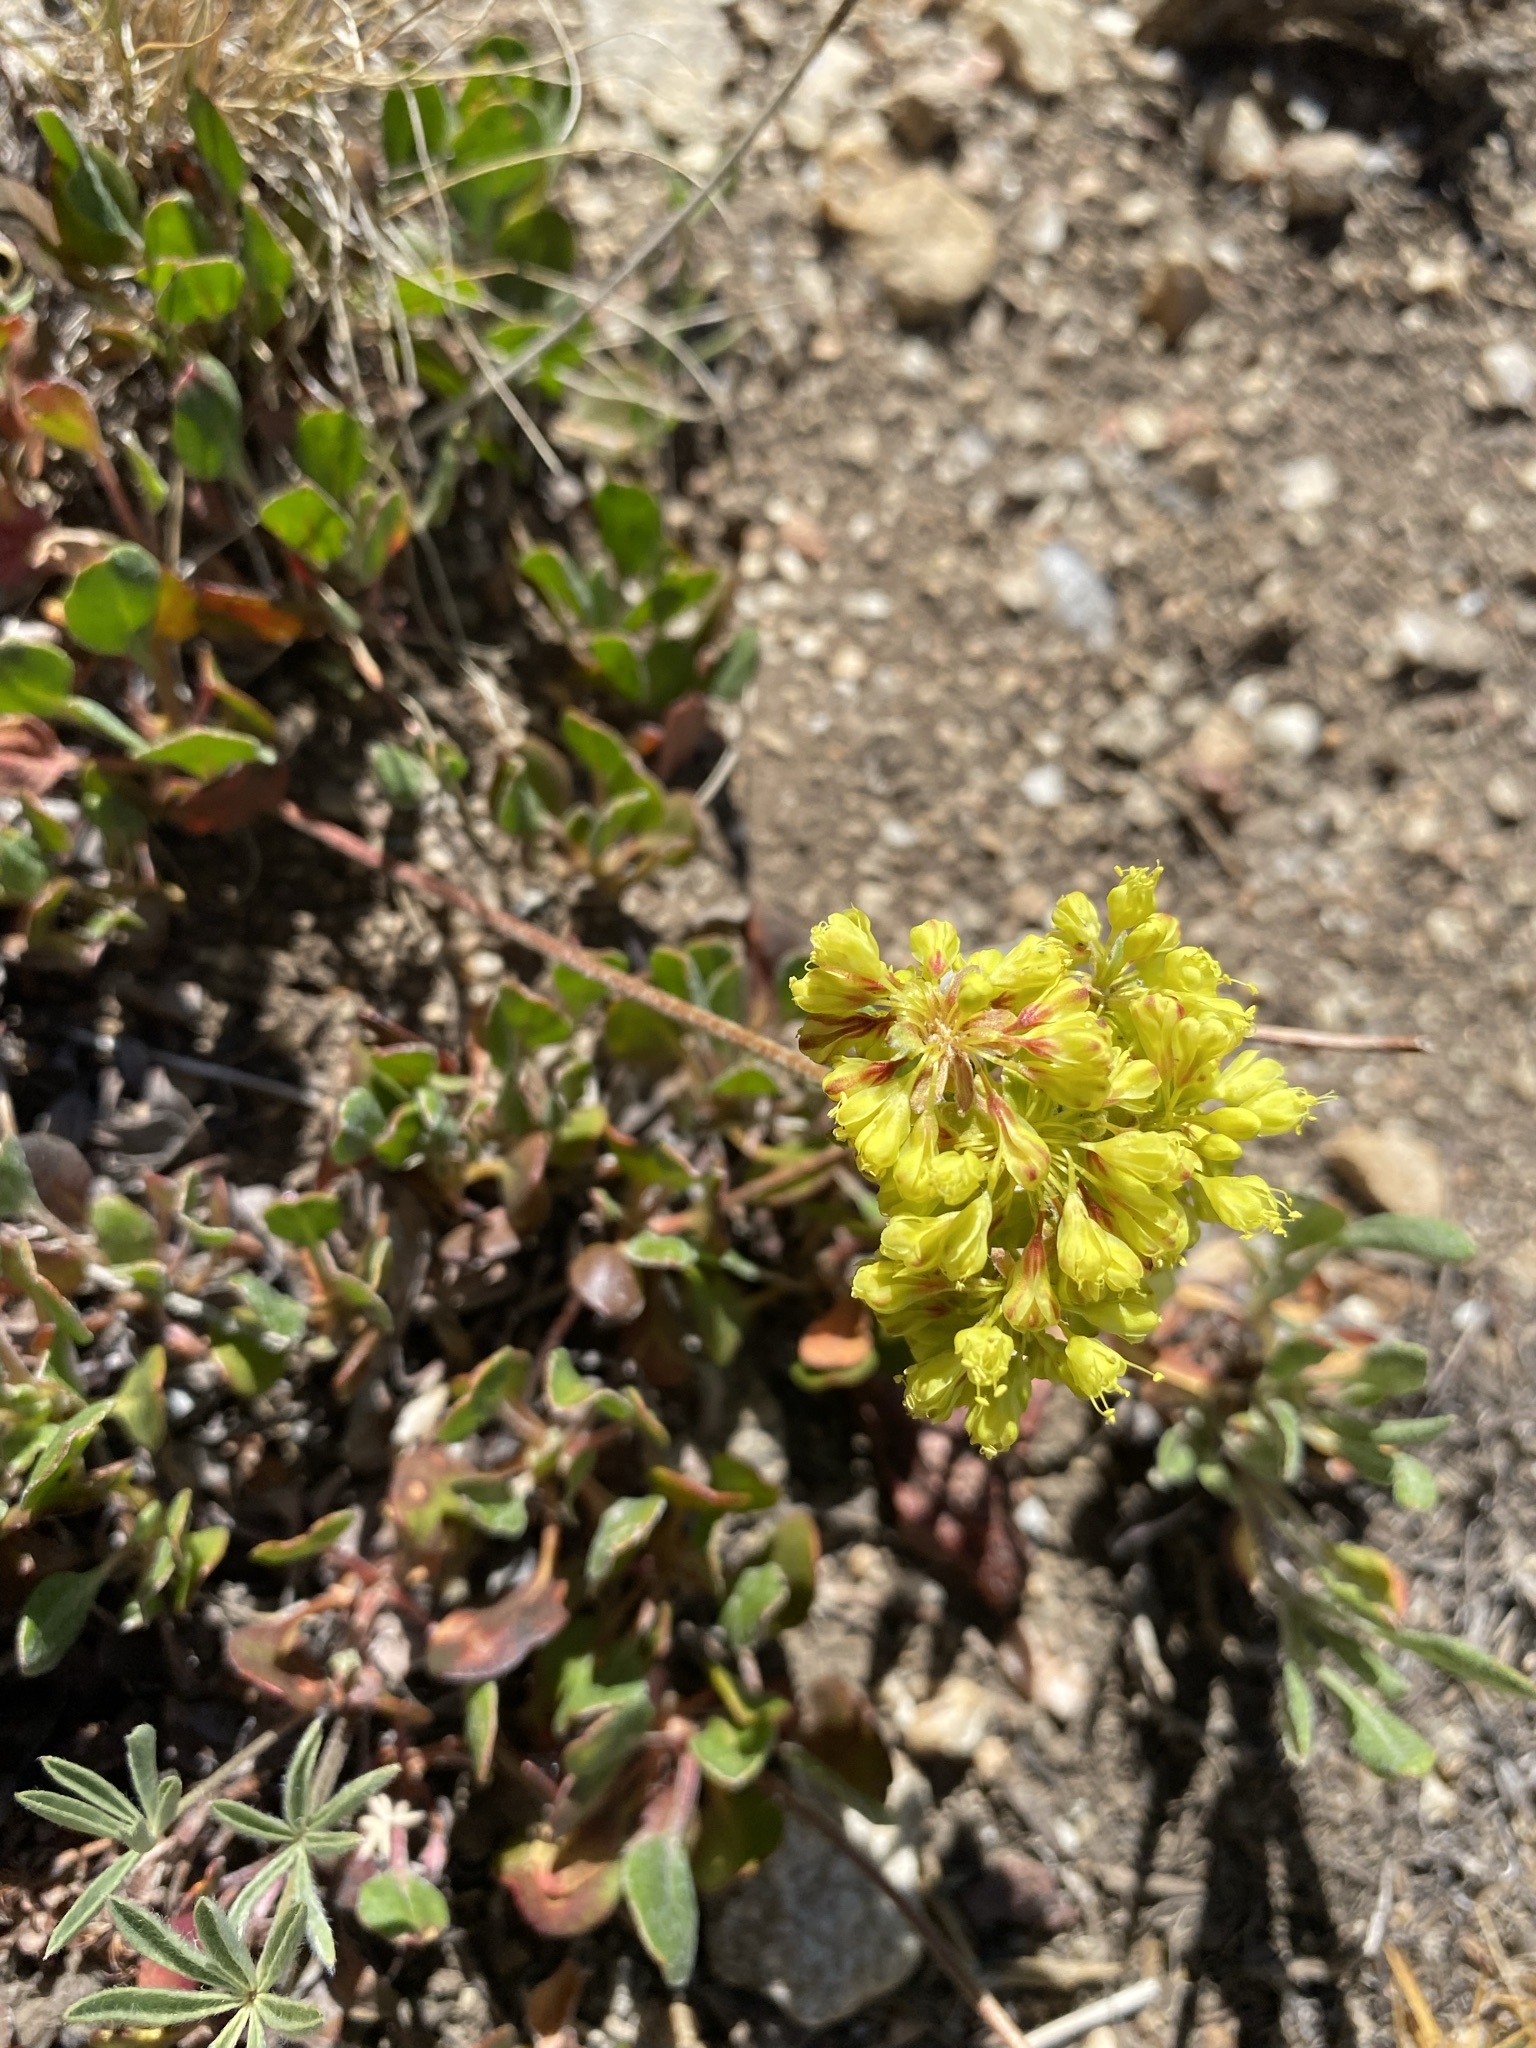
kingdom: Plantae
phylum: Tracheophyta
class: Magnoliopsida
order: Caryophyllales
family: Polygonaceae
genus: Eriogonum
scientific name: Eriogonum umbellatum
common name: Sulfur-buckwheat
